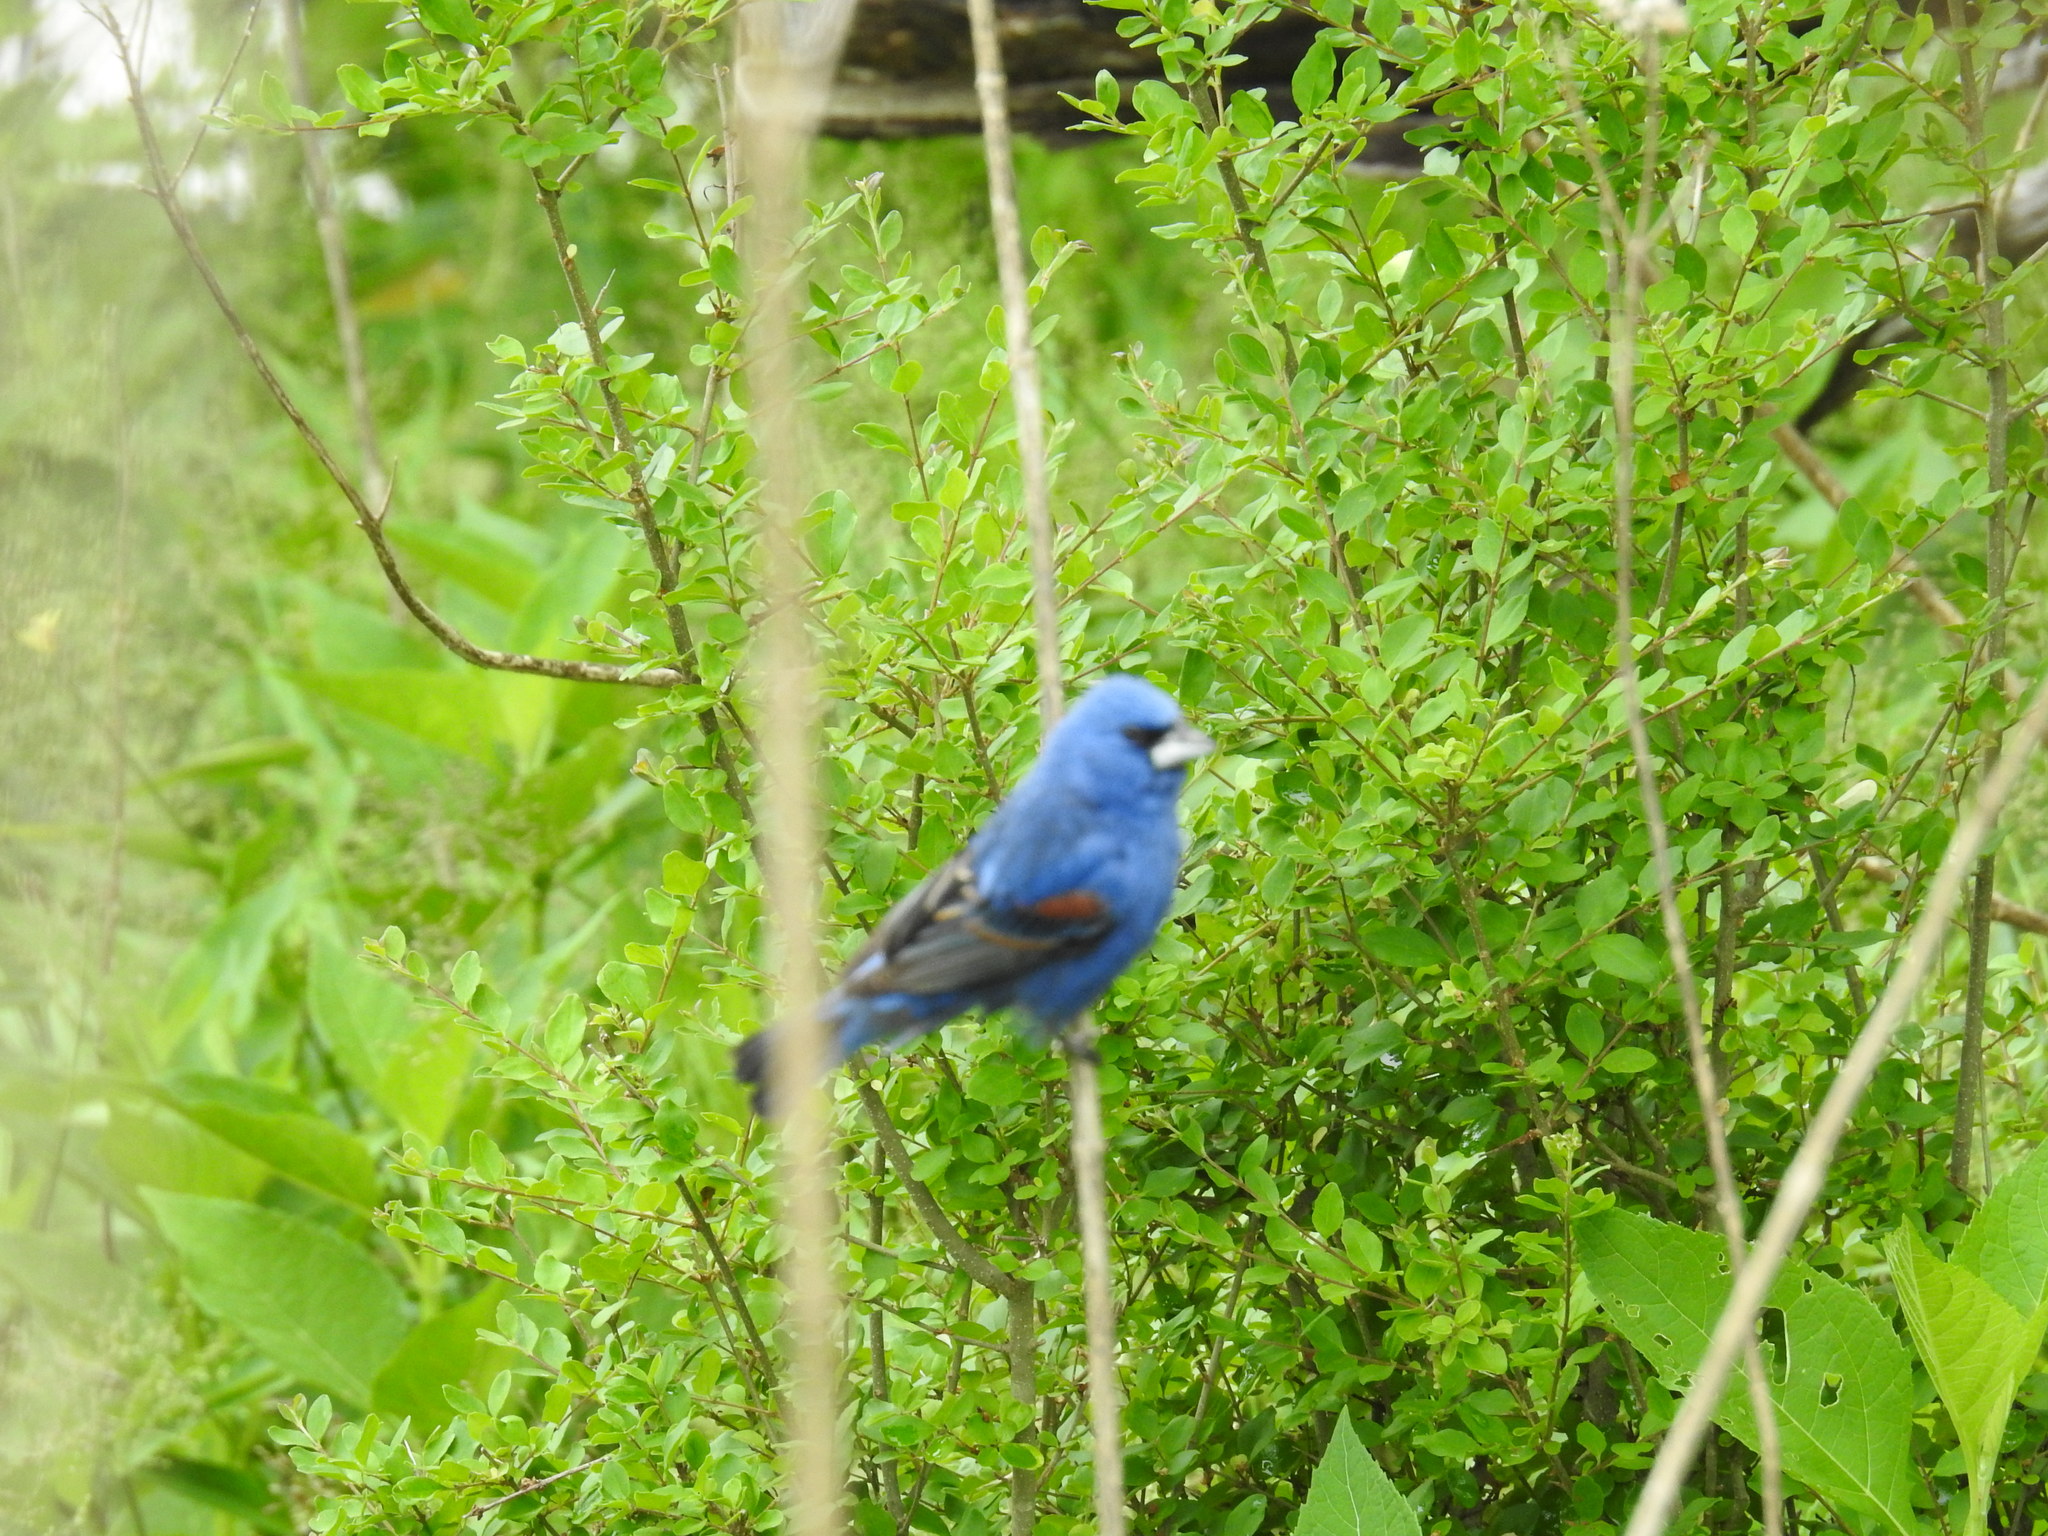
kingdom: Animalia
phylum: Chordata
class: Aves
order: Passeriformes
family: Cardinalidae
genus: Passerina
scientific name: Passerina caerulea
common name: Blue grosbeak
